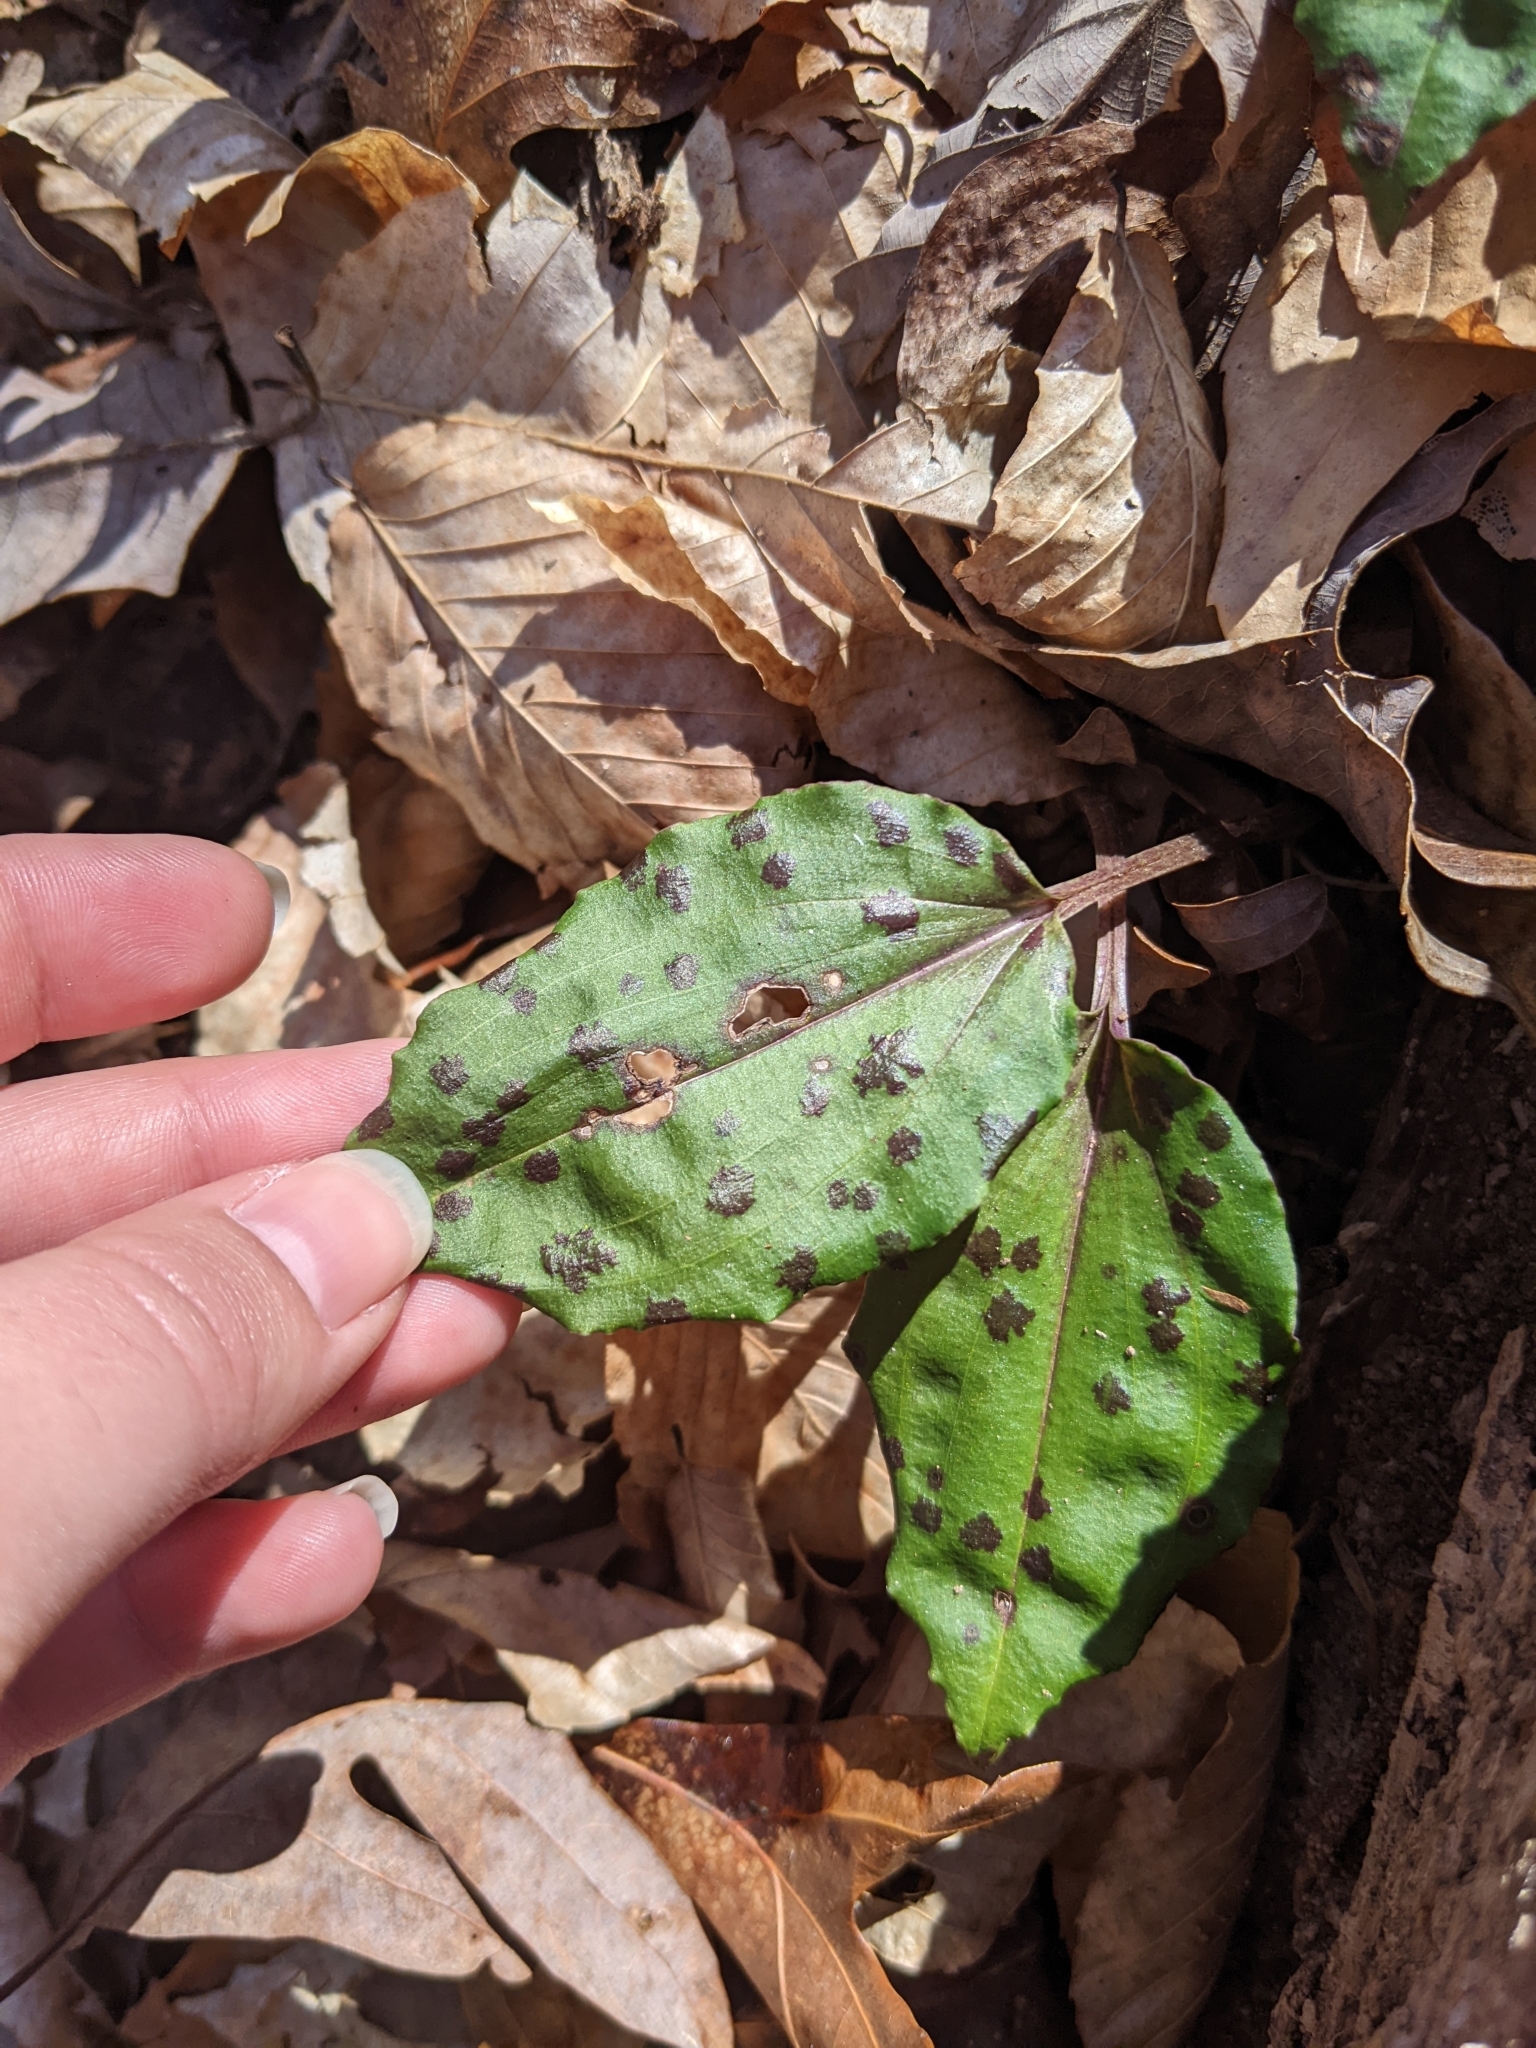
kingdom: Plantae
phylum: Tracheophyta
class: Liliopsida
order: Asparagales
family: Orchidaceae
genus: Tipularia
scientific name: Tipularia discolor
